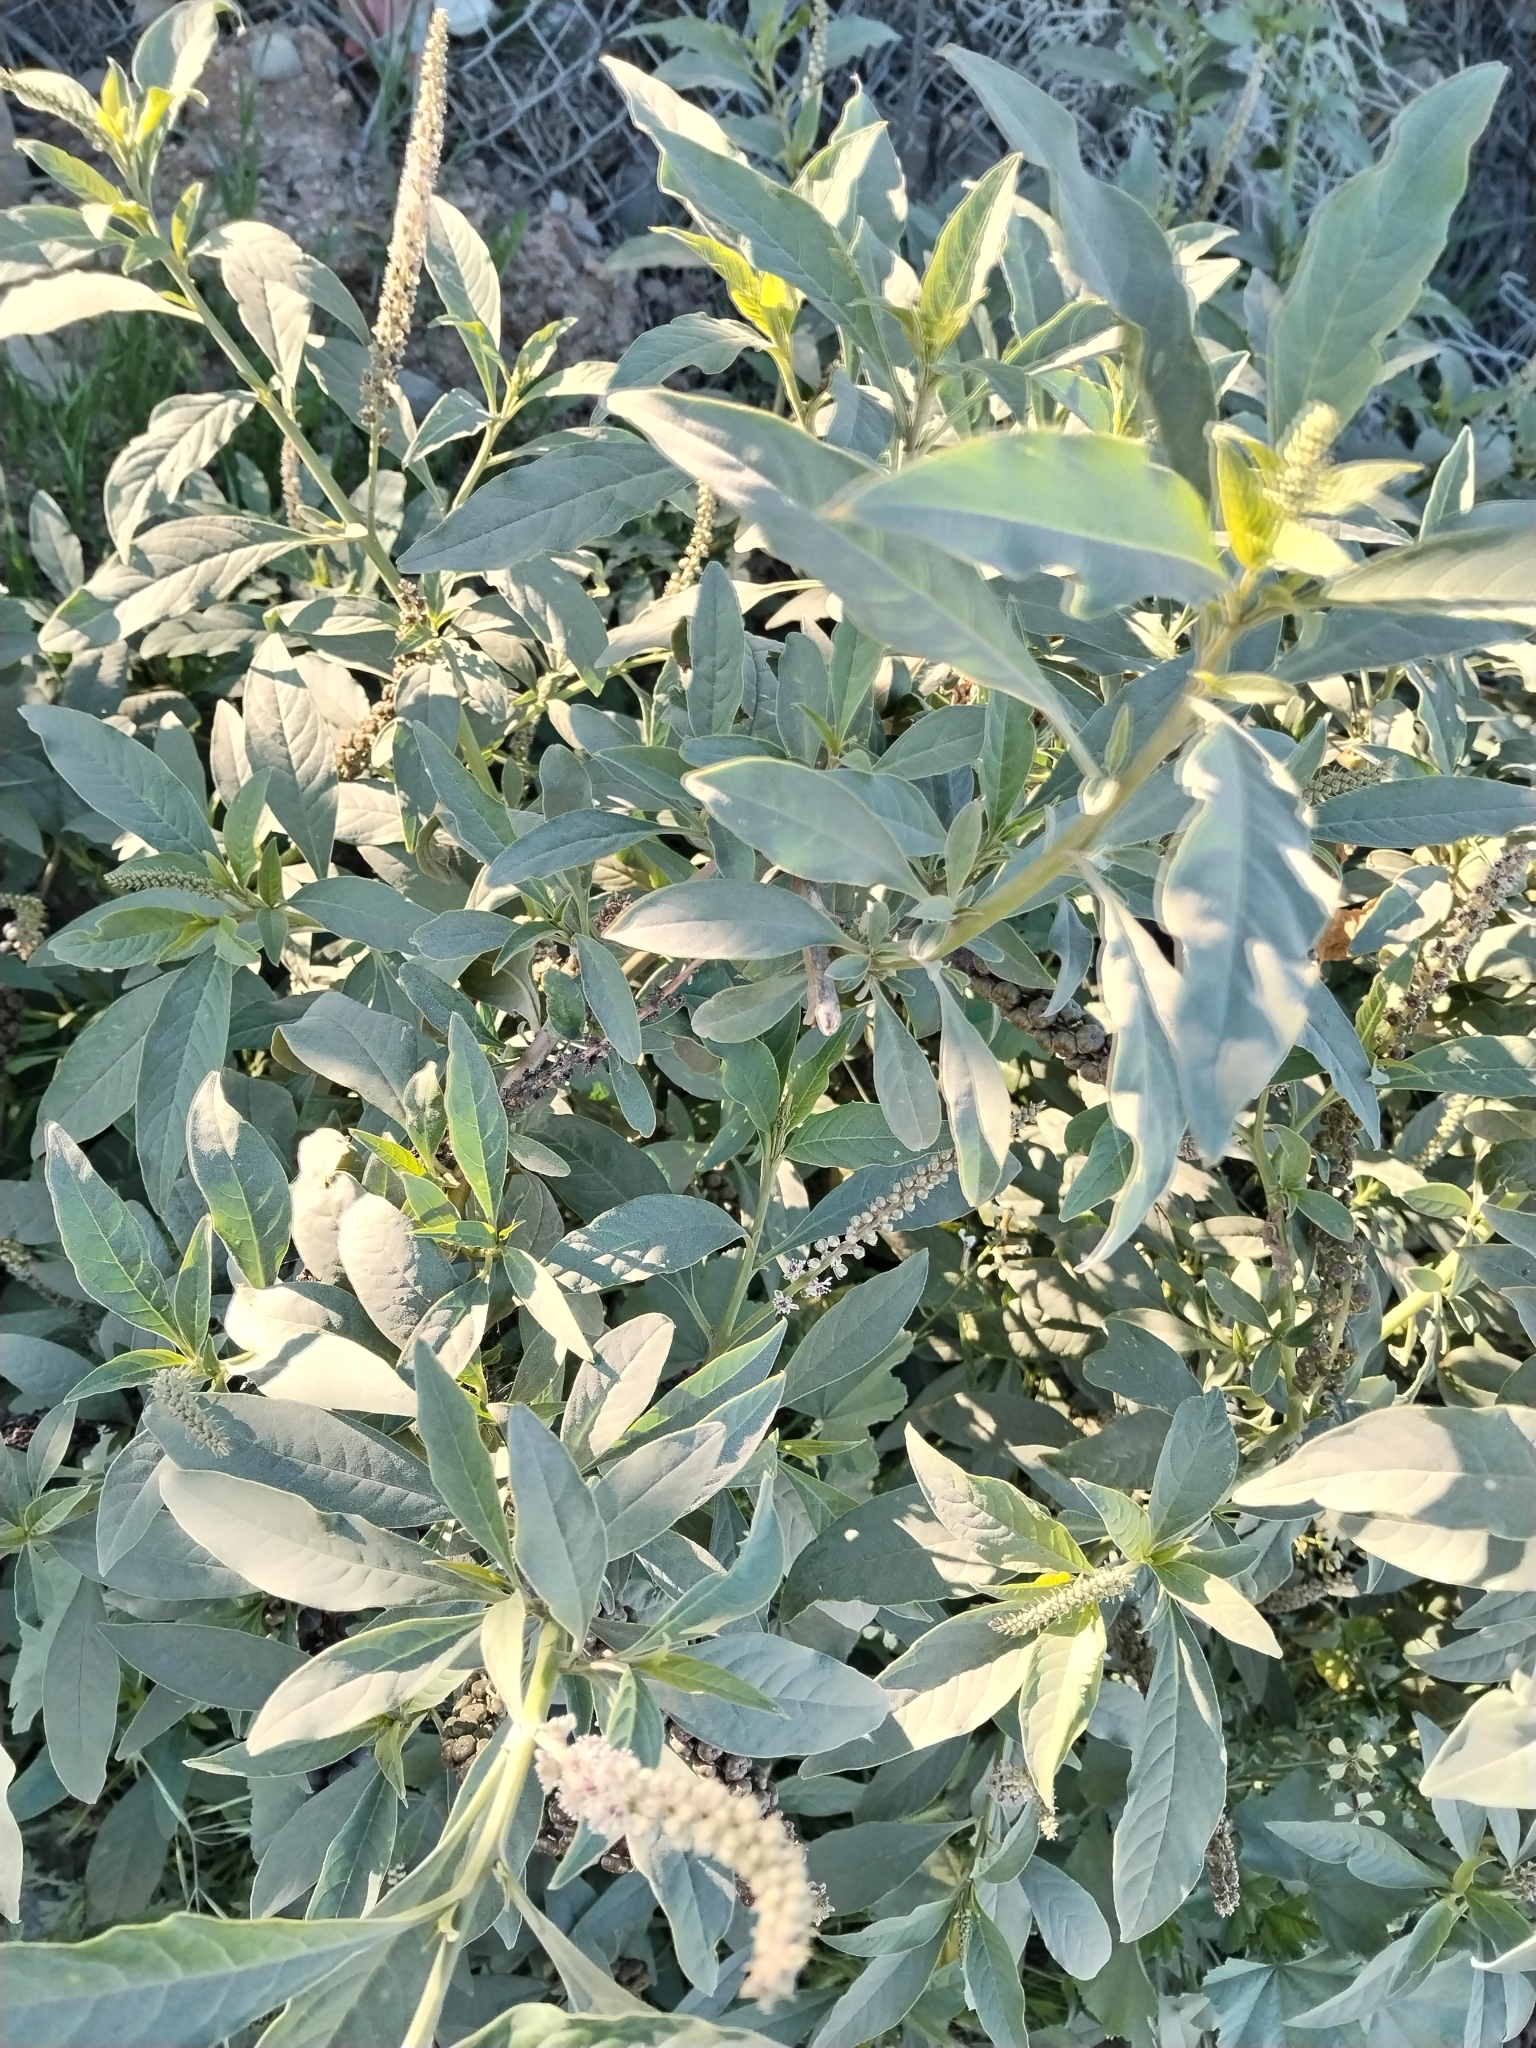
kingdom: Plantae
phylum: Tracheophyta
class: Magnoliopsida
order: Caryophyllales
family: Phytolaccaceae
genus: Phytolacca
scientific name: Phytolacca icosandra
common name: Button pokeweed
